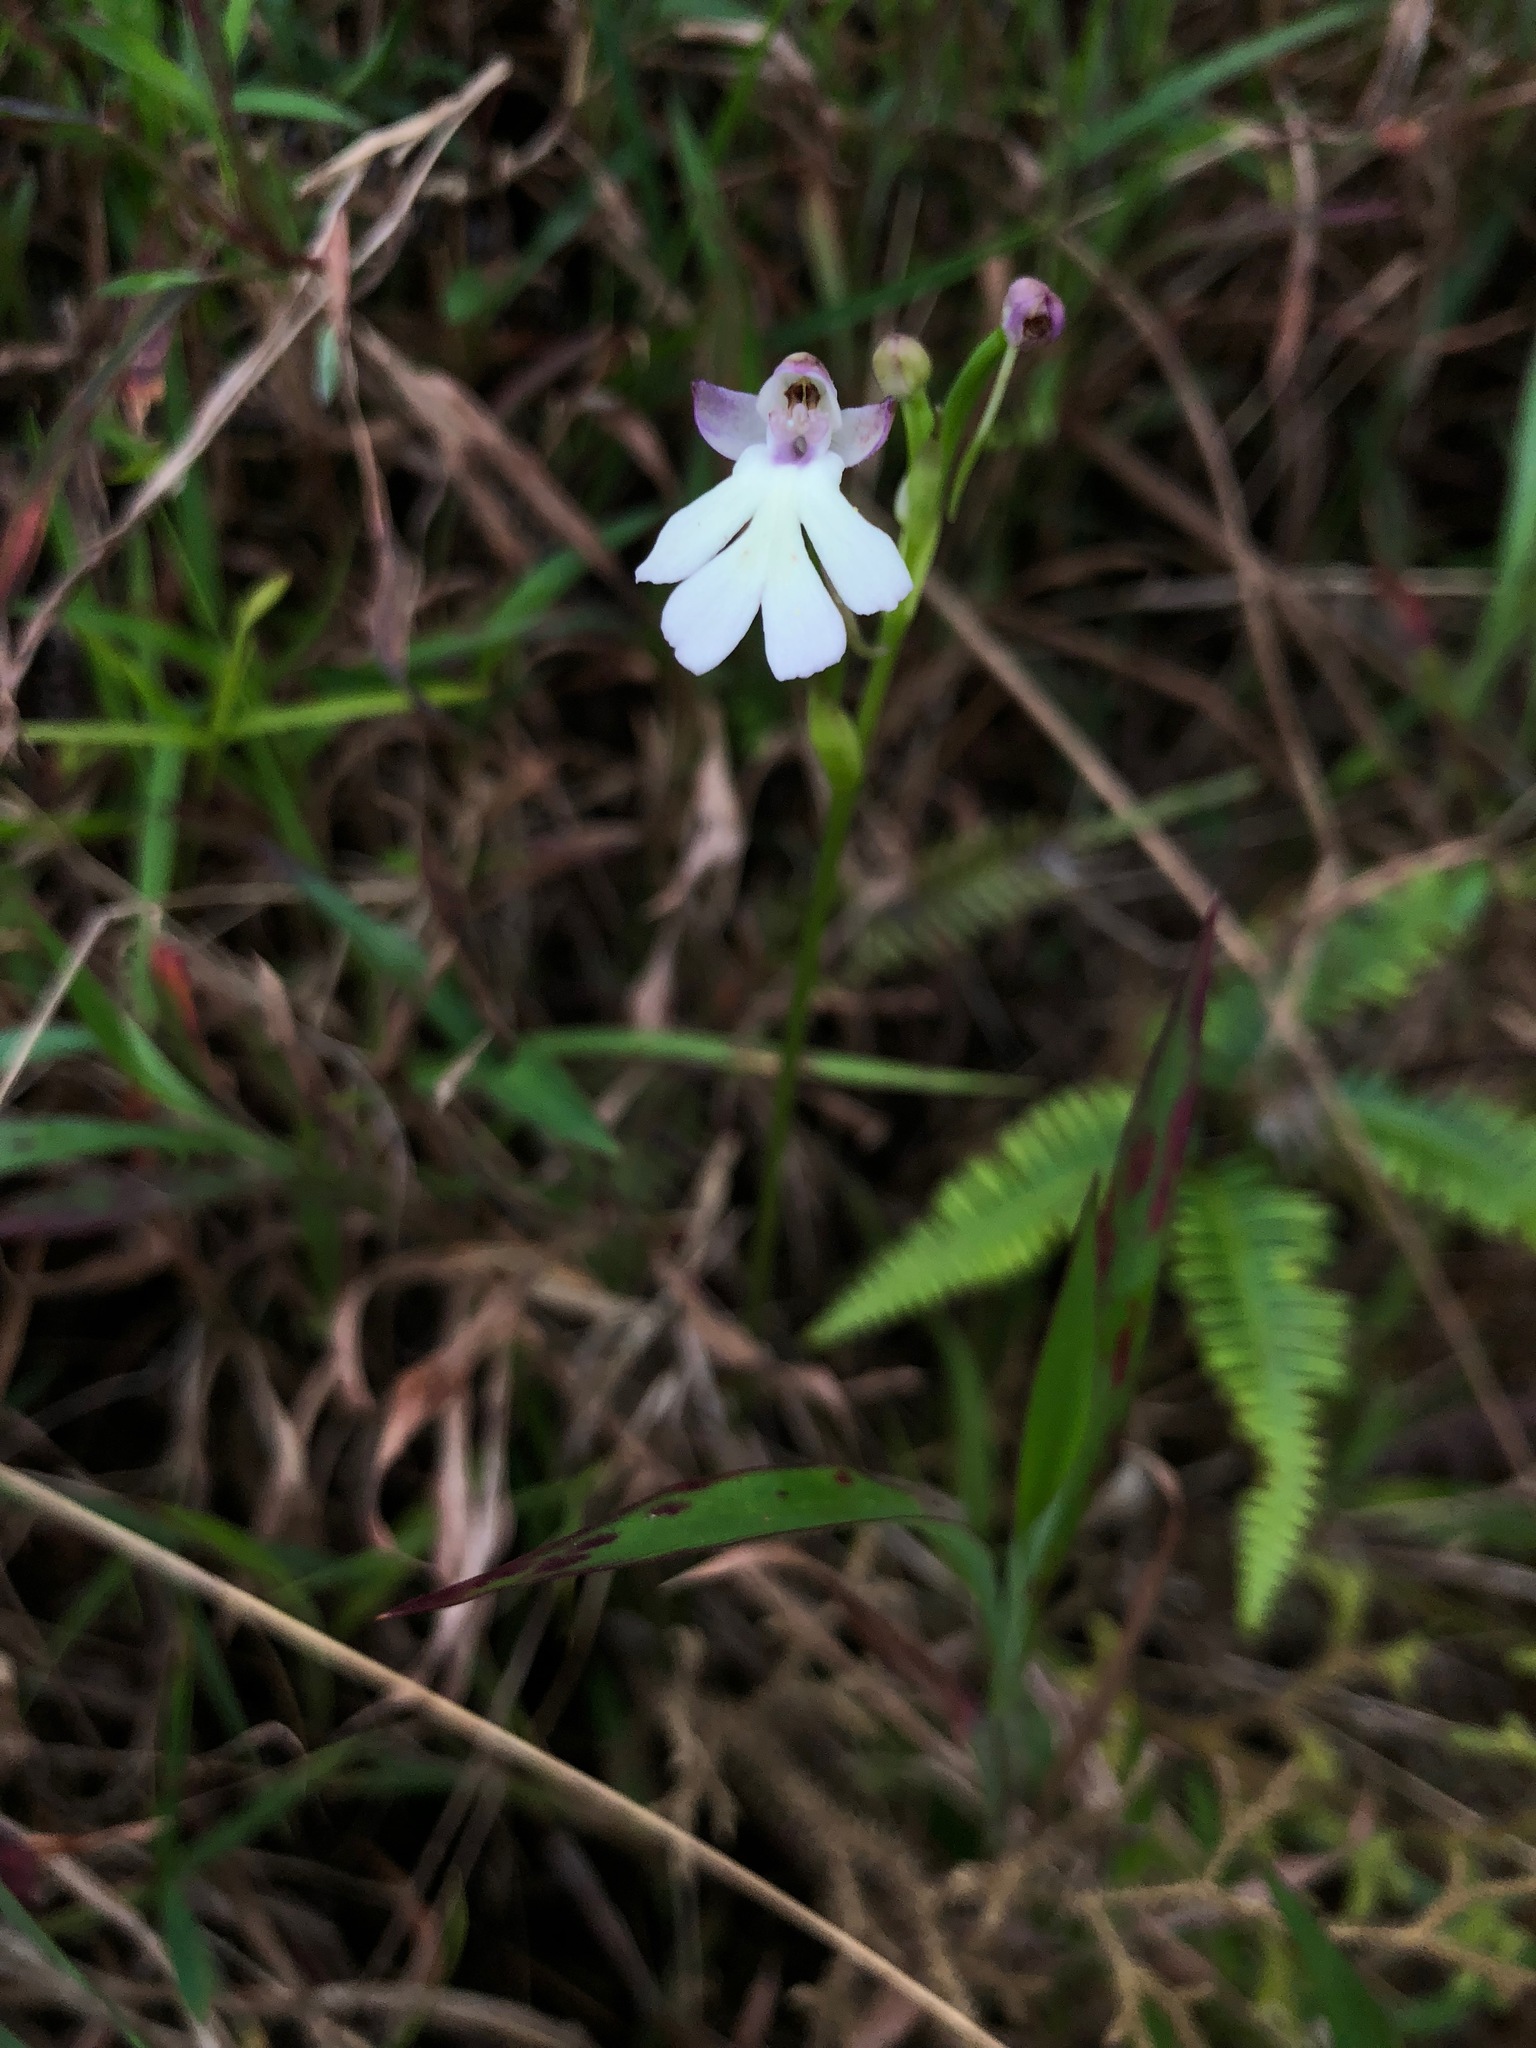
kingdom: Plantae
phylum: Tracheophyta
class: Liliopsida
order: Asparagales
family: Orchidaceae
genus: Cynorkis
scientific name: Cynorkis fastigiata
